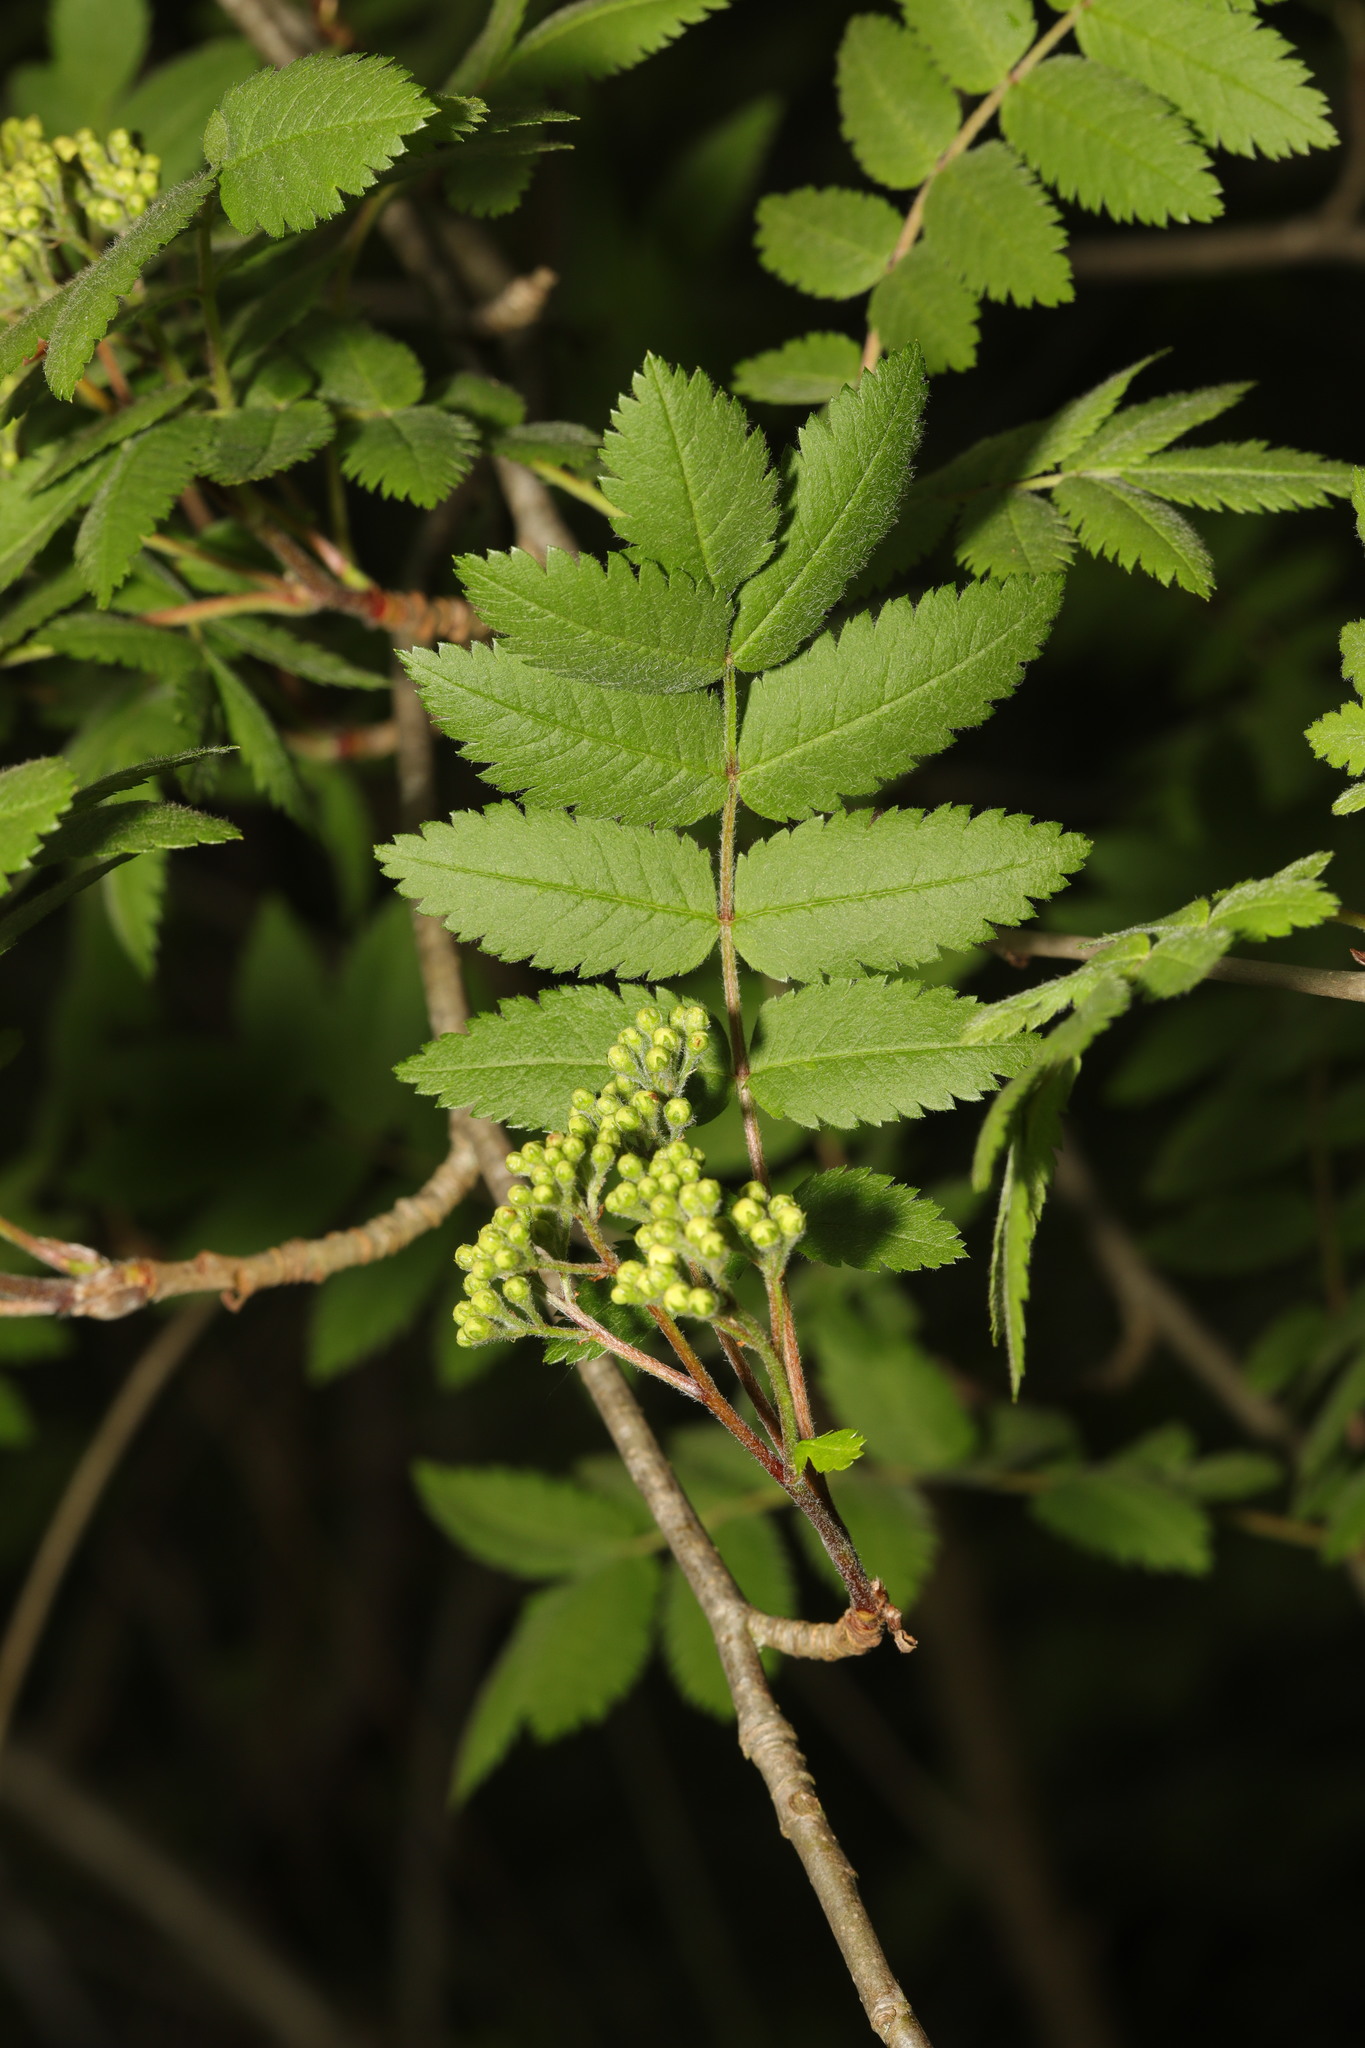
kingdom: Plantae
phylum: Tracheophyta
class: Magnoliopsida
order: Rosales
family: Rosaceae
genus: Sorbus
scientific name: Sorbus aucuparia
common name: Rowan
